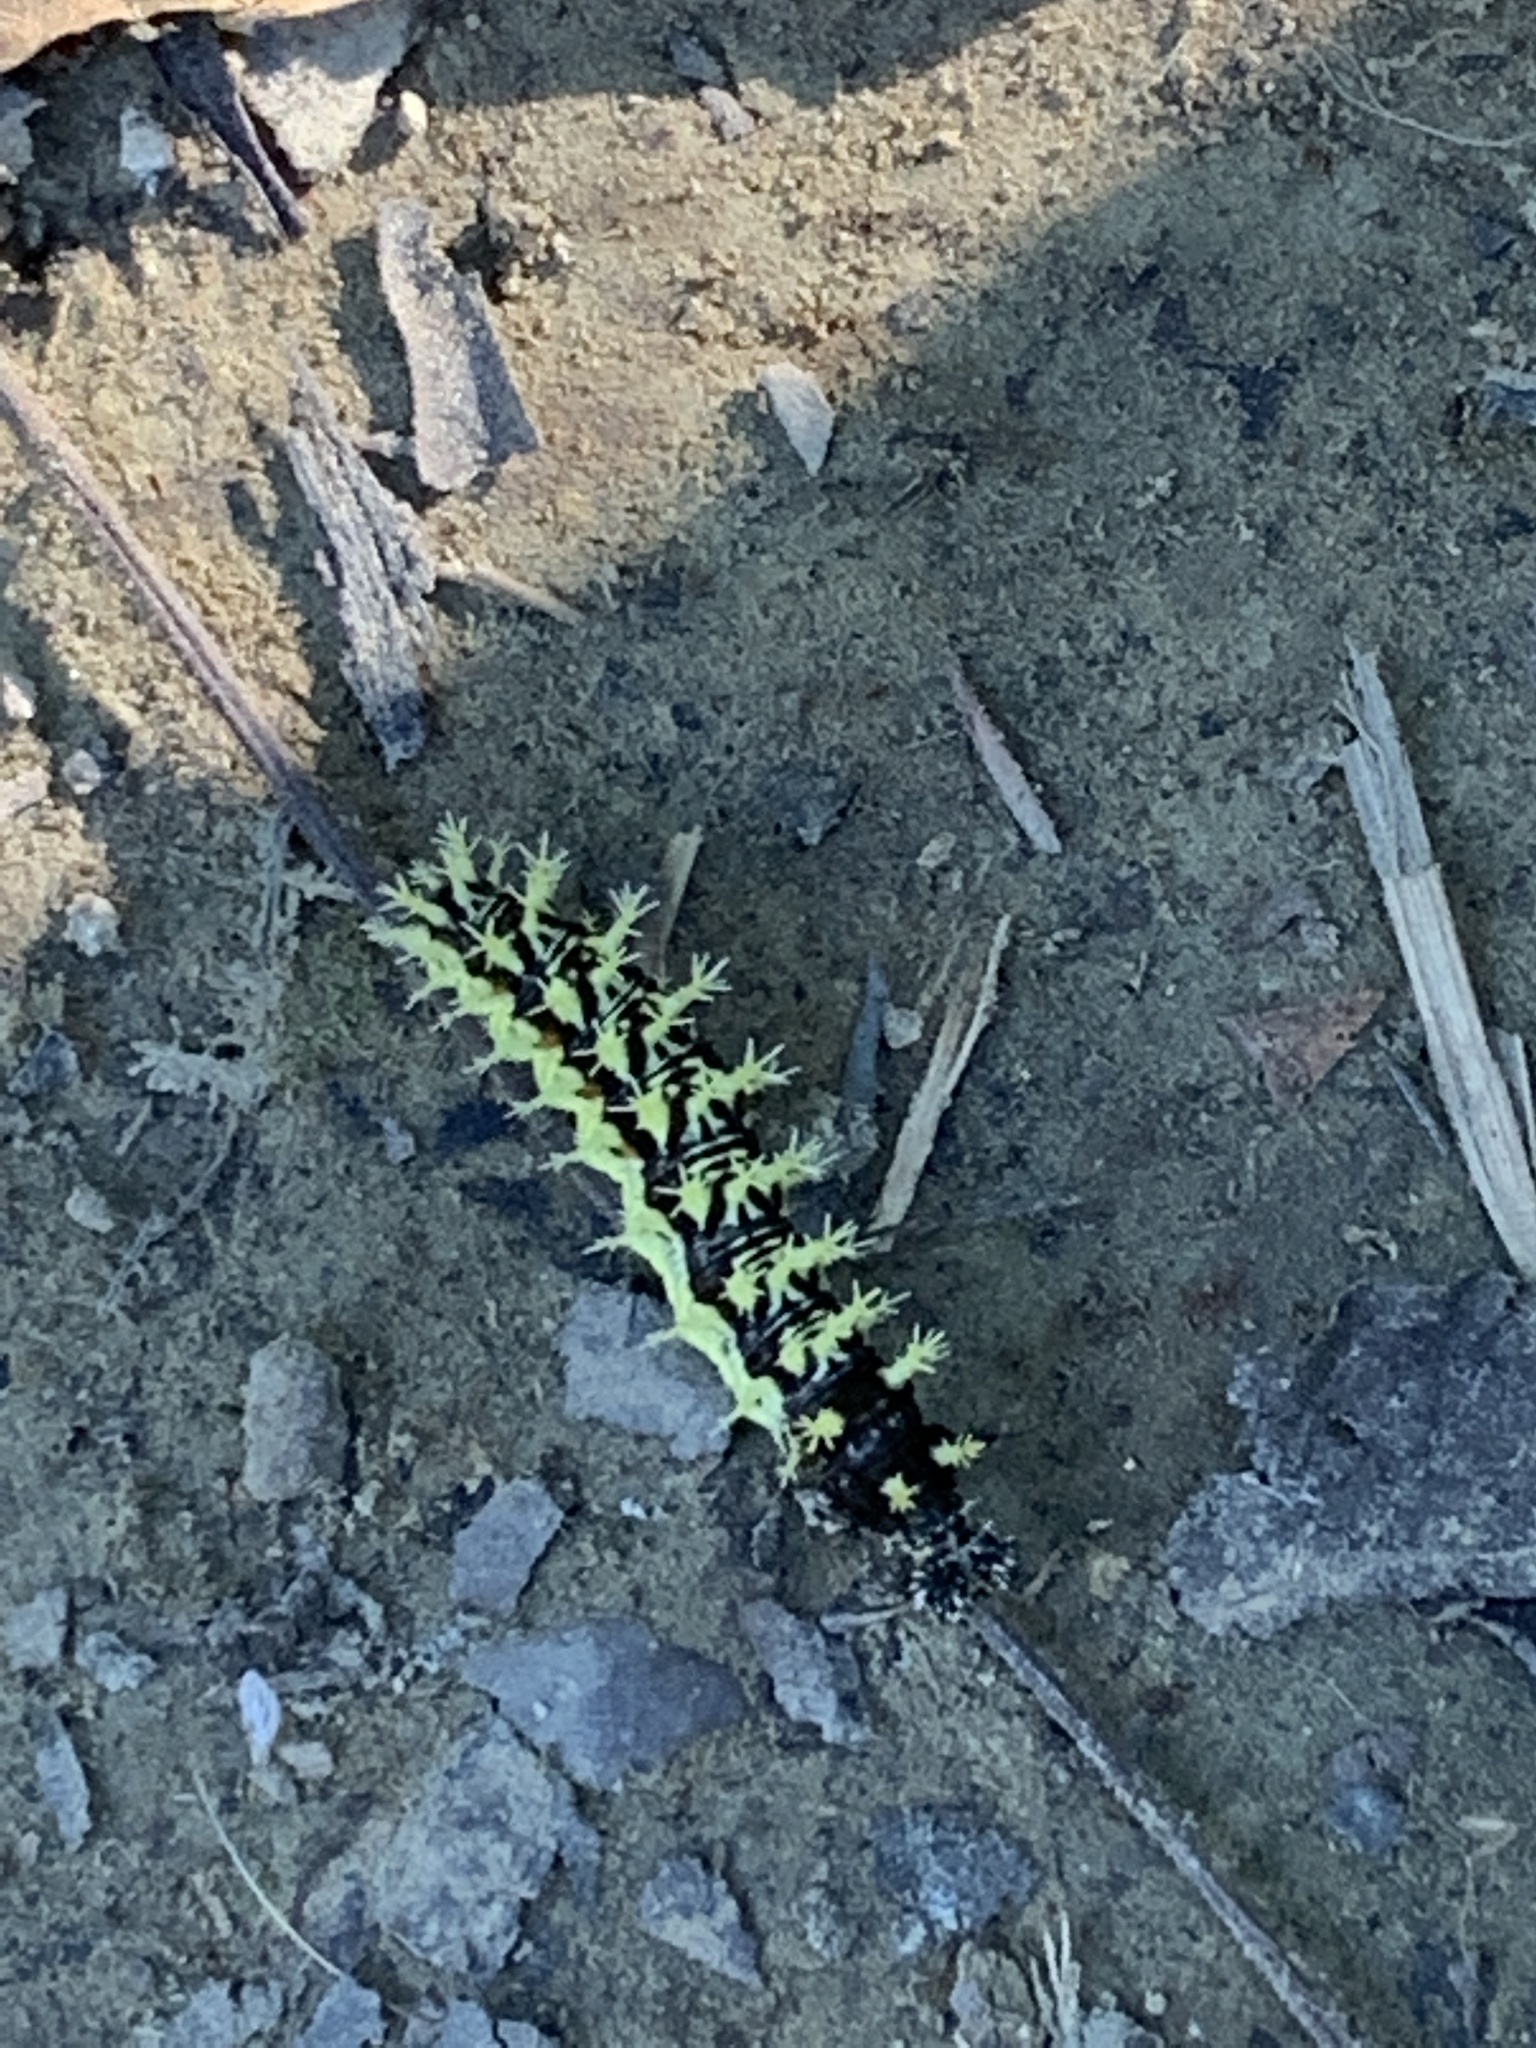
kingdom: Animalia
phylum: Arthropoda
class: Insecta
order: Lepidoptera
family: Nymphalidae
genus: Polygonia
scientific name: Polygonia comma
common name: Eastern comma
